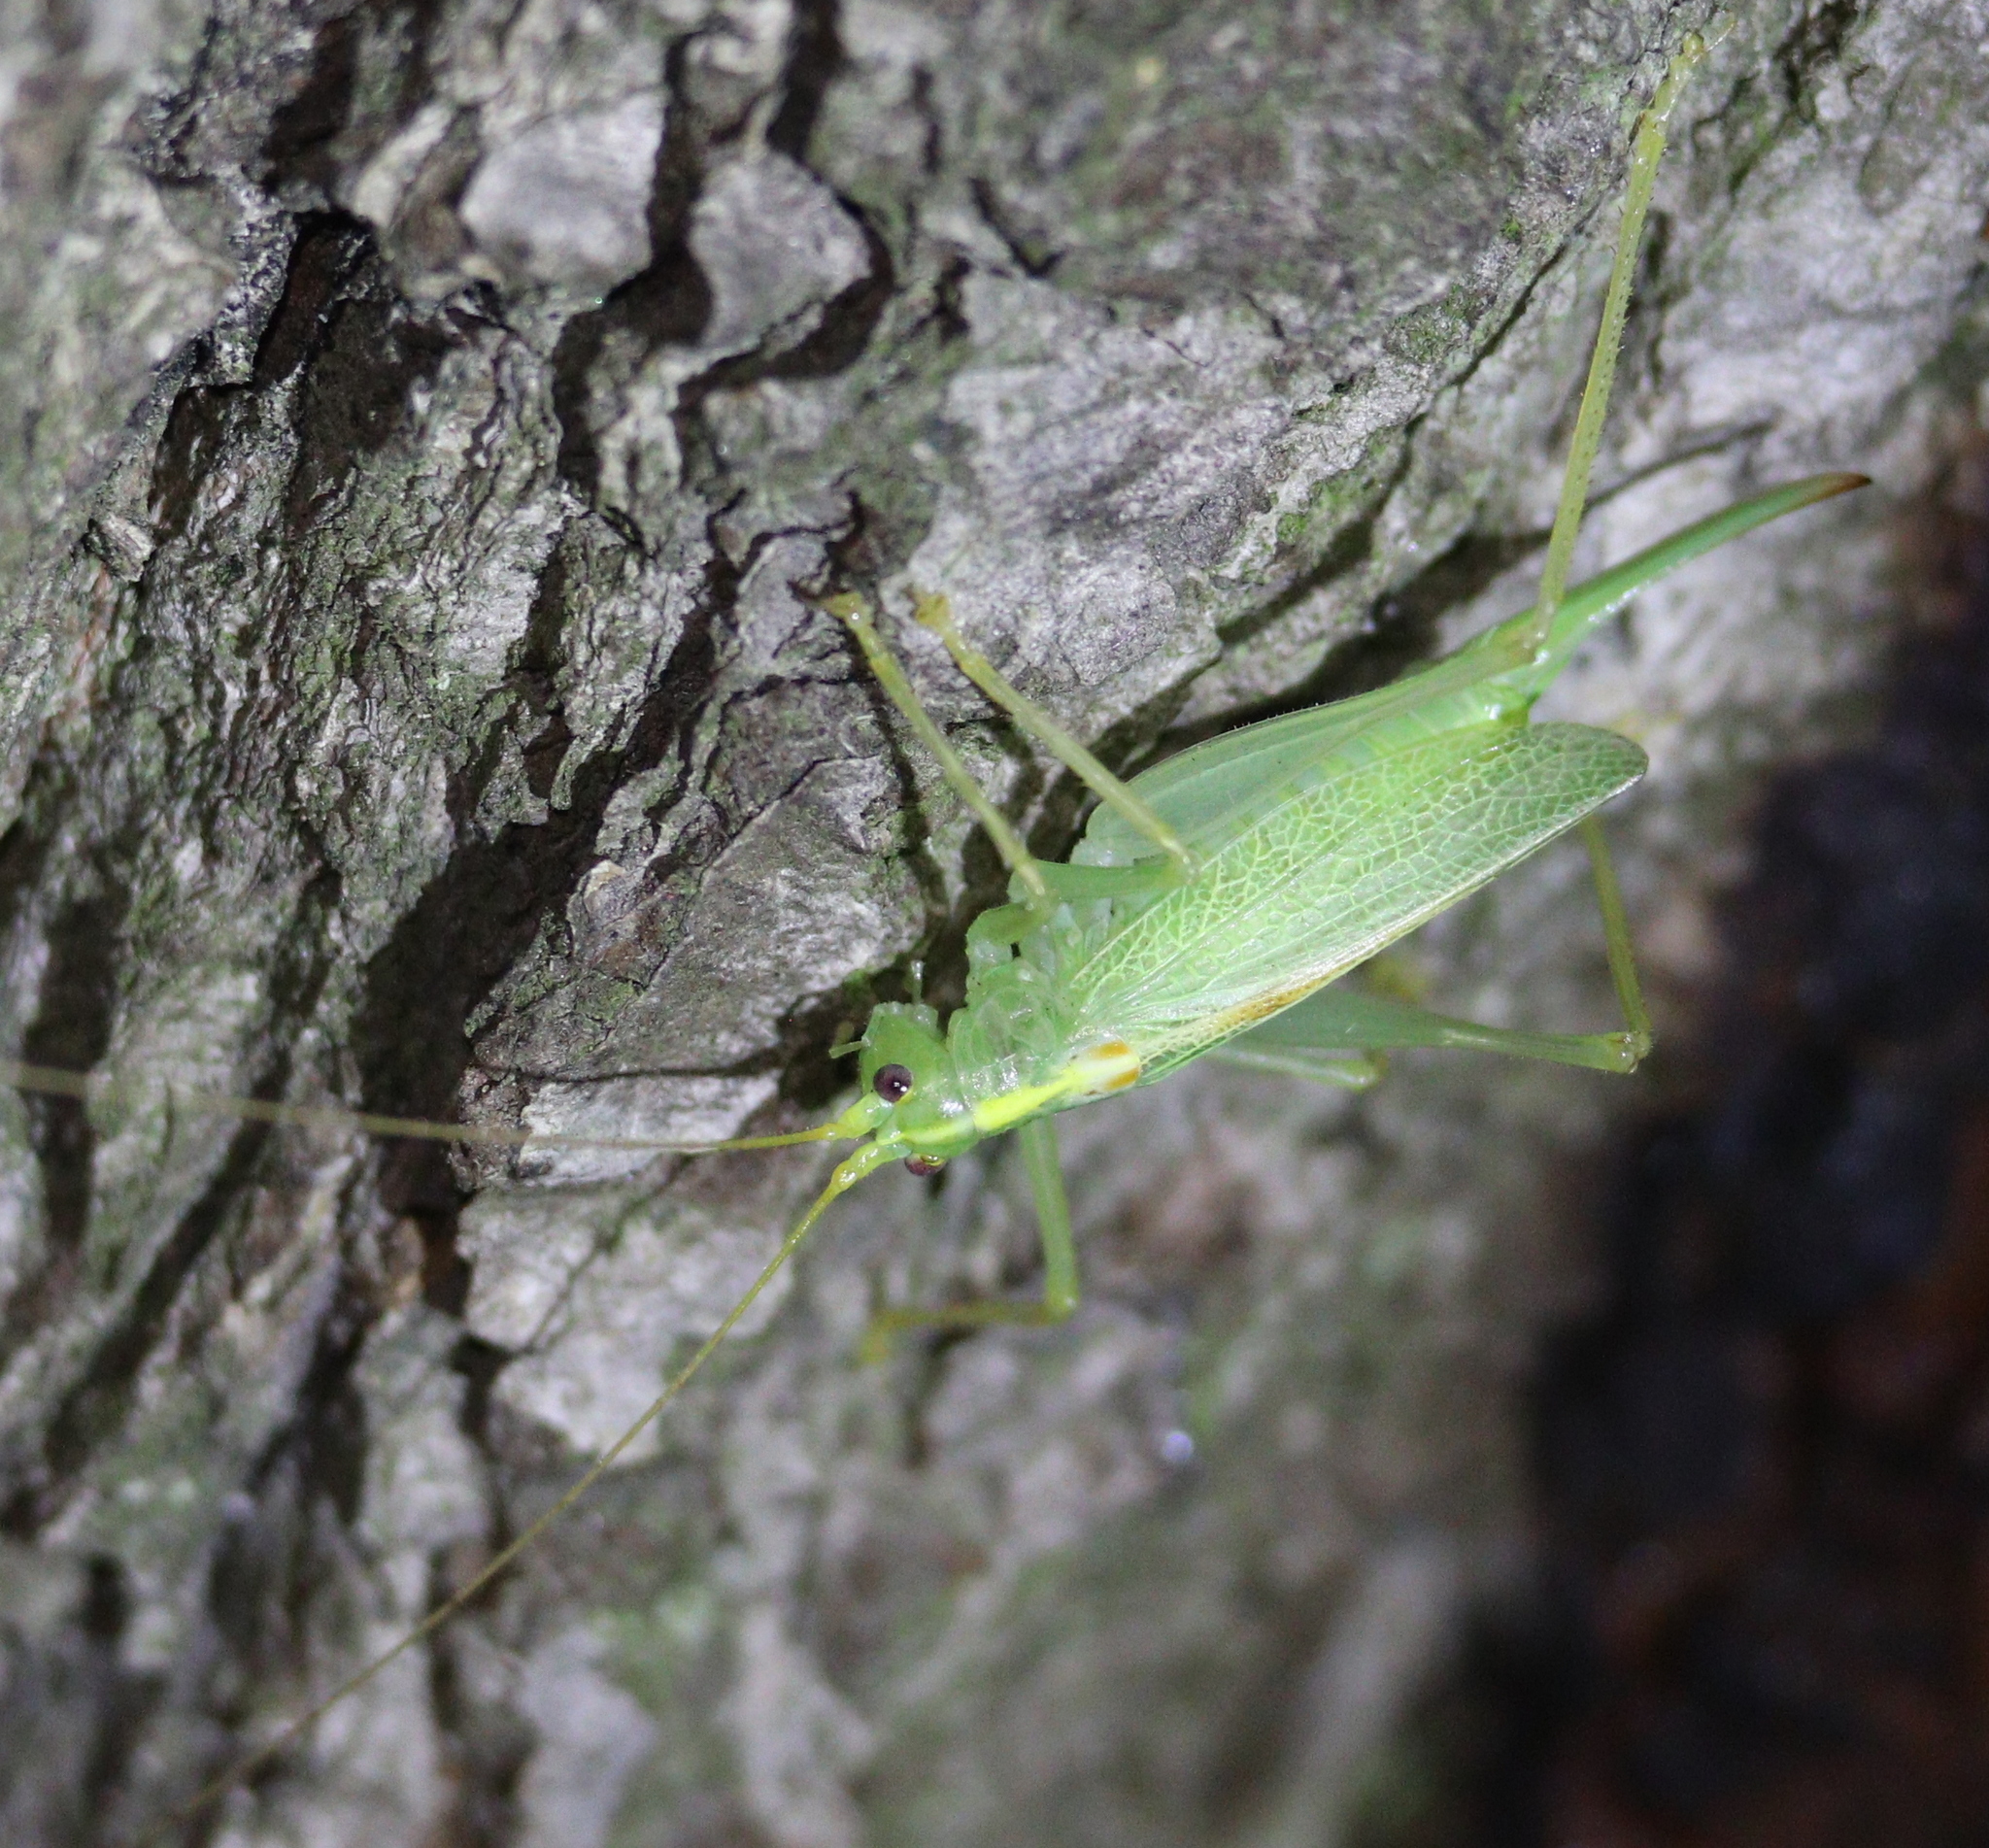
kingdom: Animalia
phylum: Arthropoda
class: Insecta
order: Orthoptera
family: Tettigoniidae
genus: Meconema
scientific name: Meconema thalassinum
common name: Oak bush-cricket
